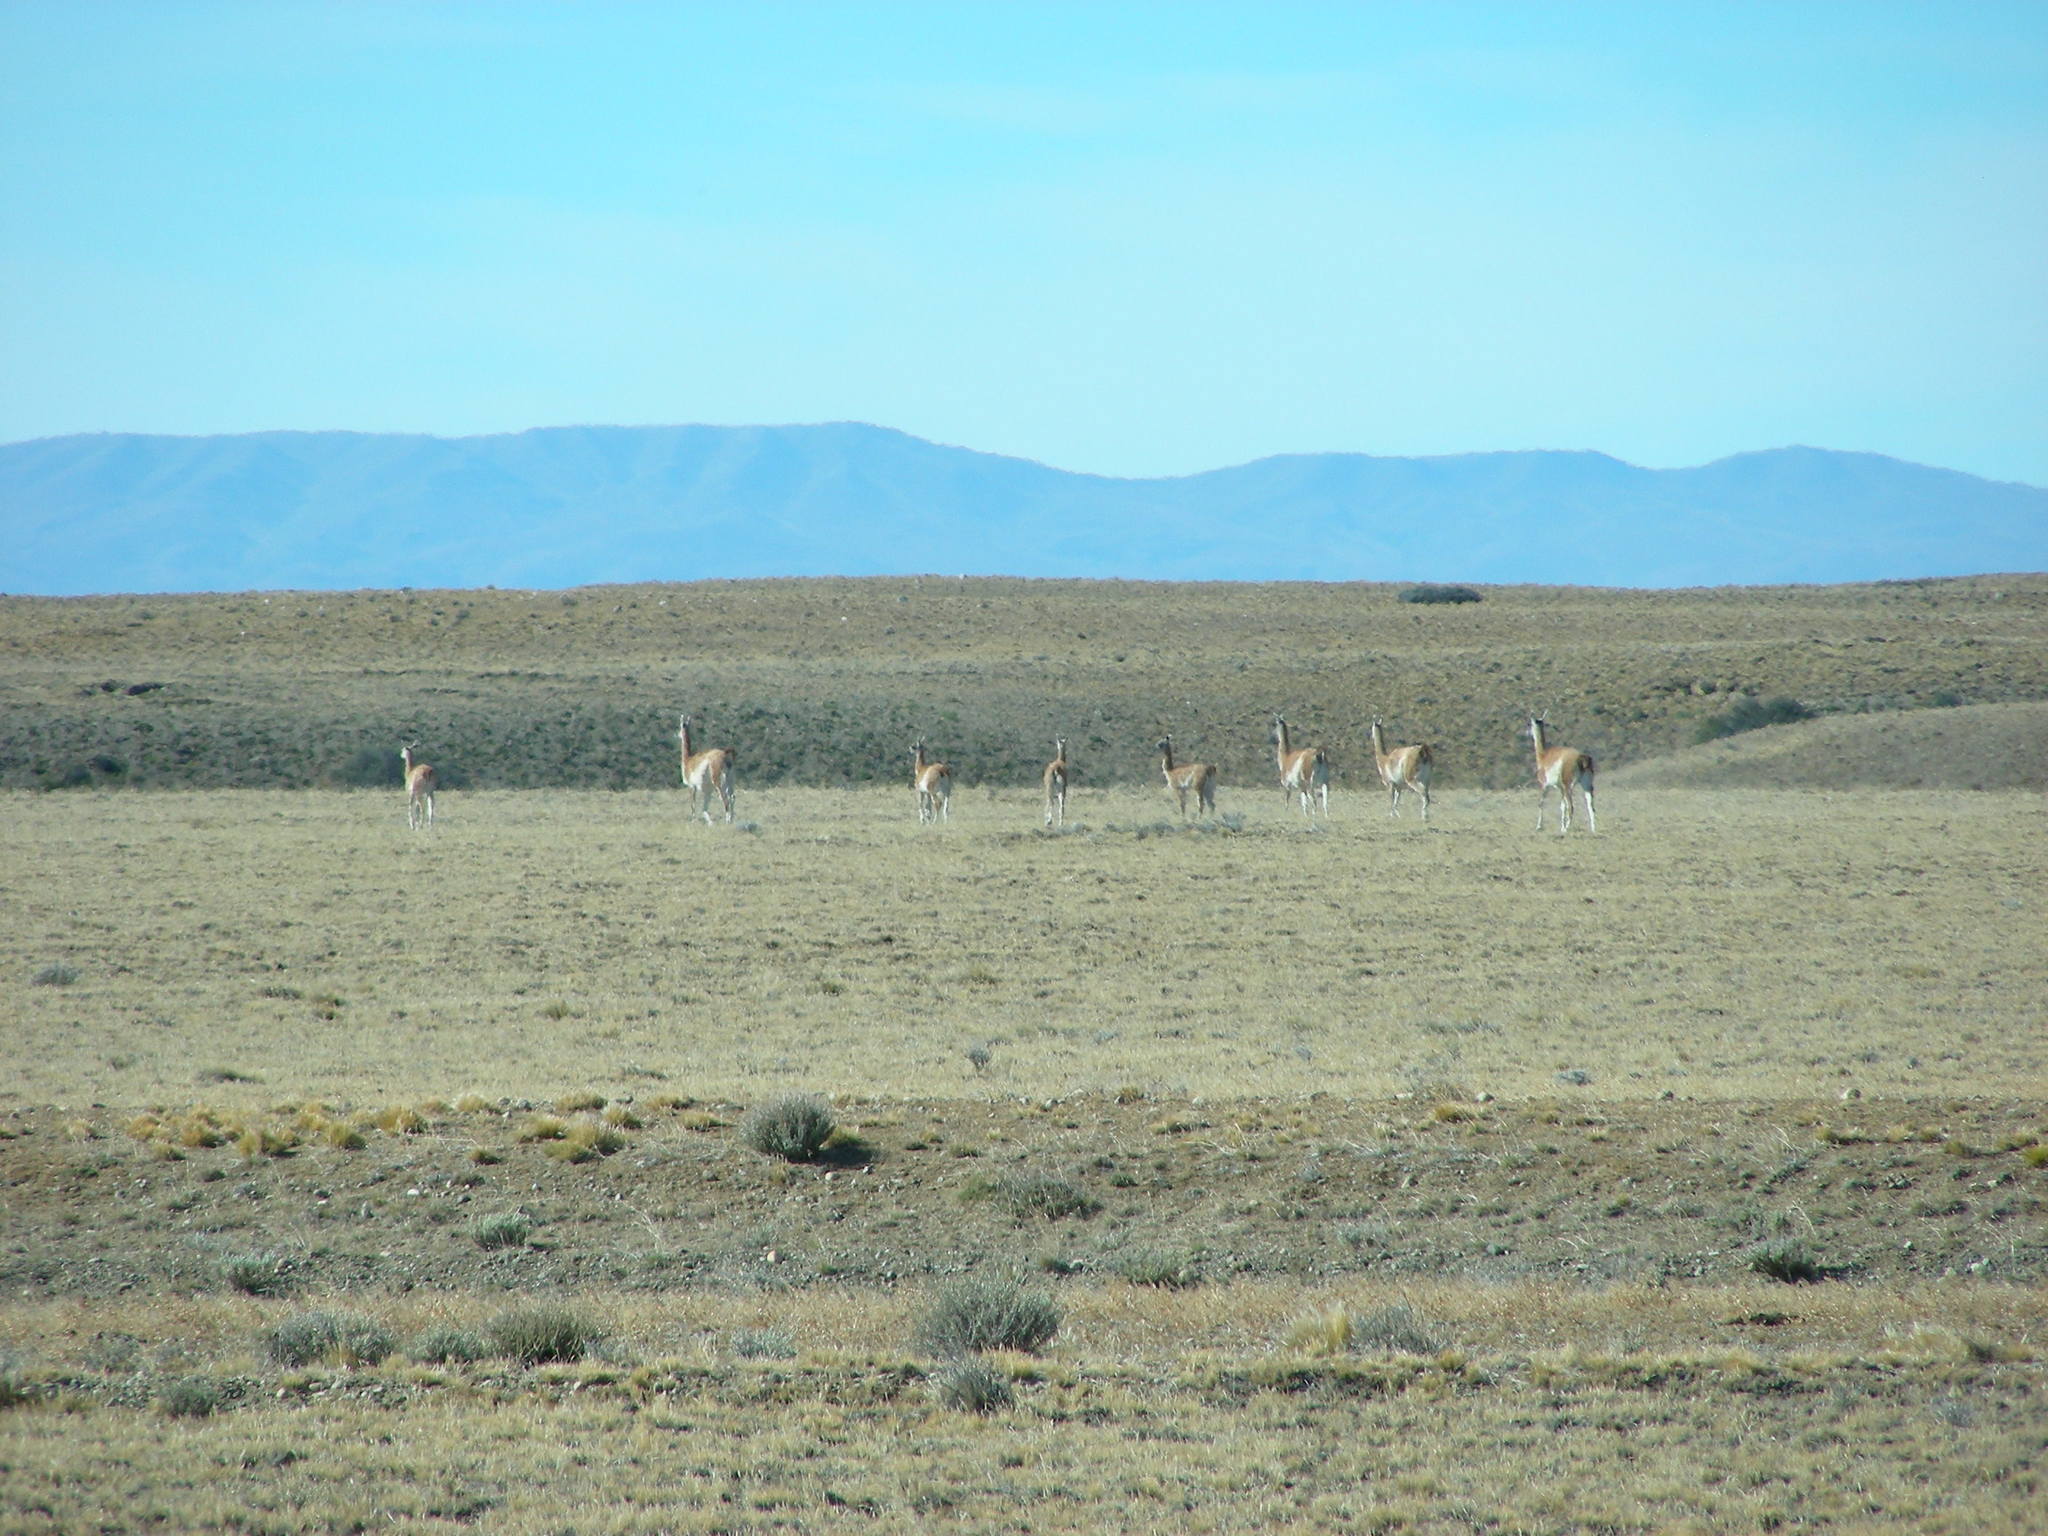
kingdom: Animalia
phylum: Chordata
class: Mammalia
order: Artiodactyla
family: Camelidae
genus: Lama
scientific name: Lama glama
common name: Llama
